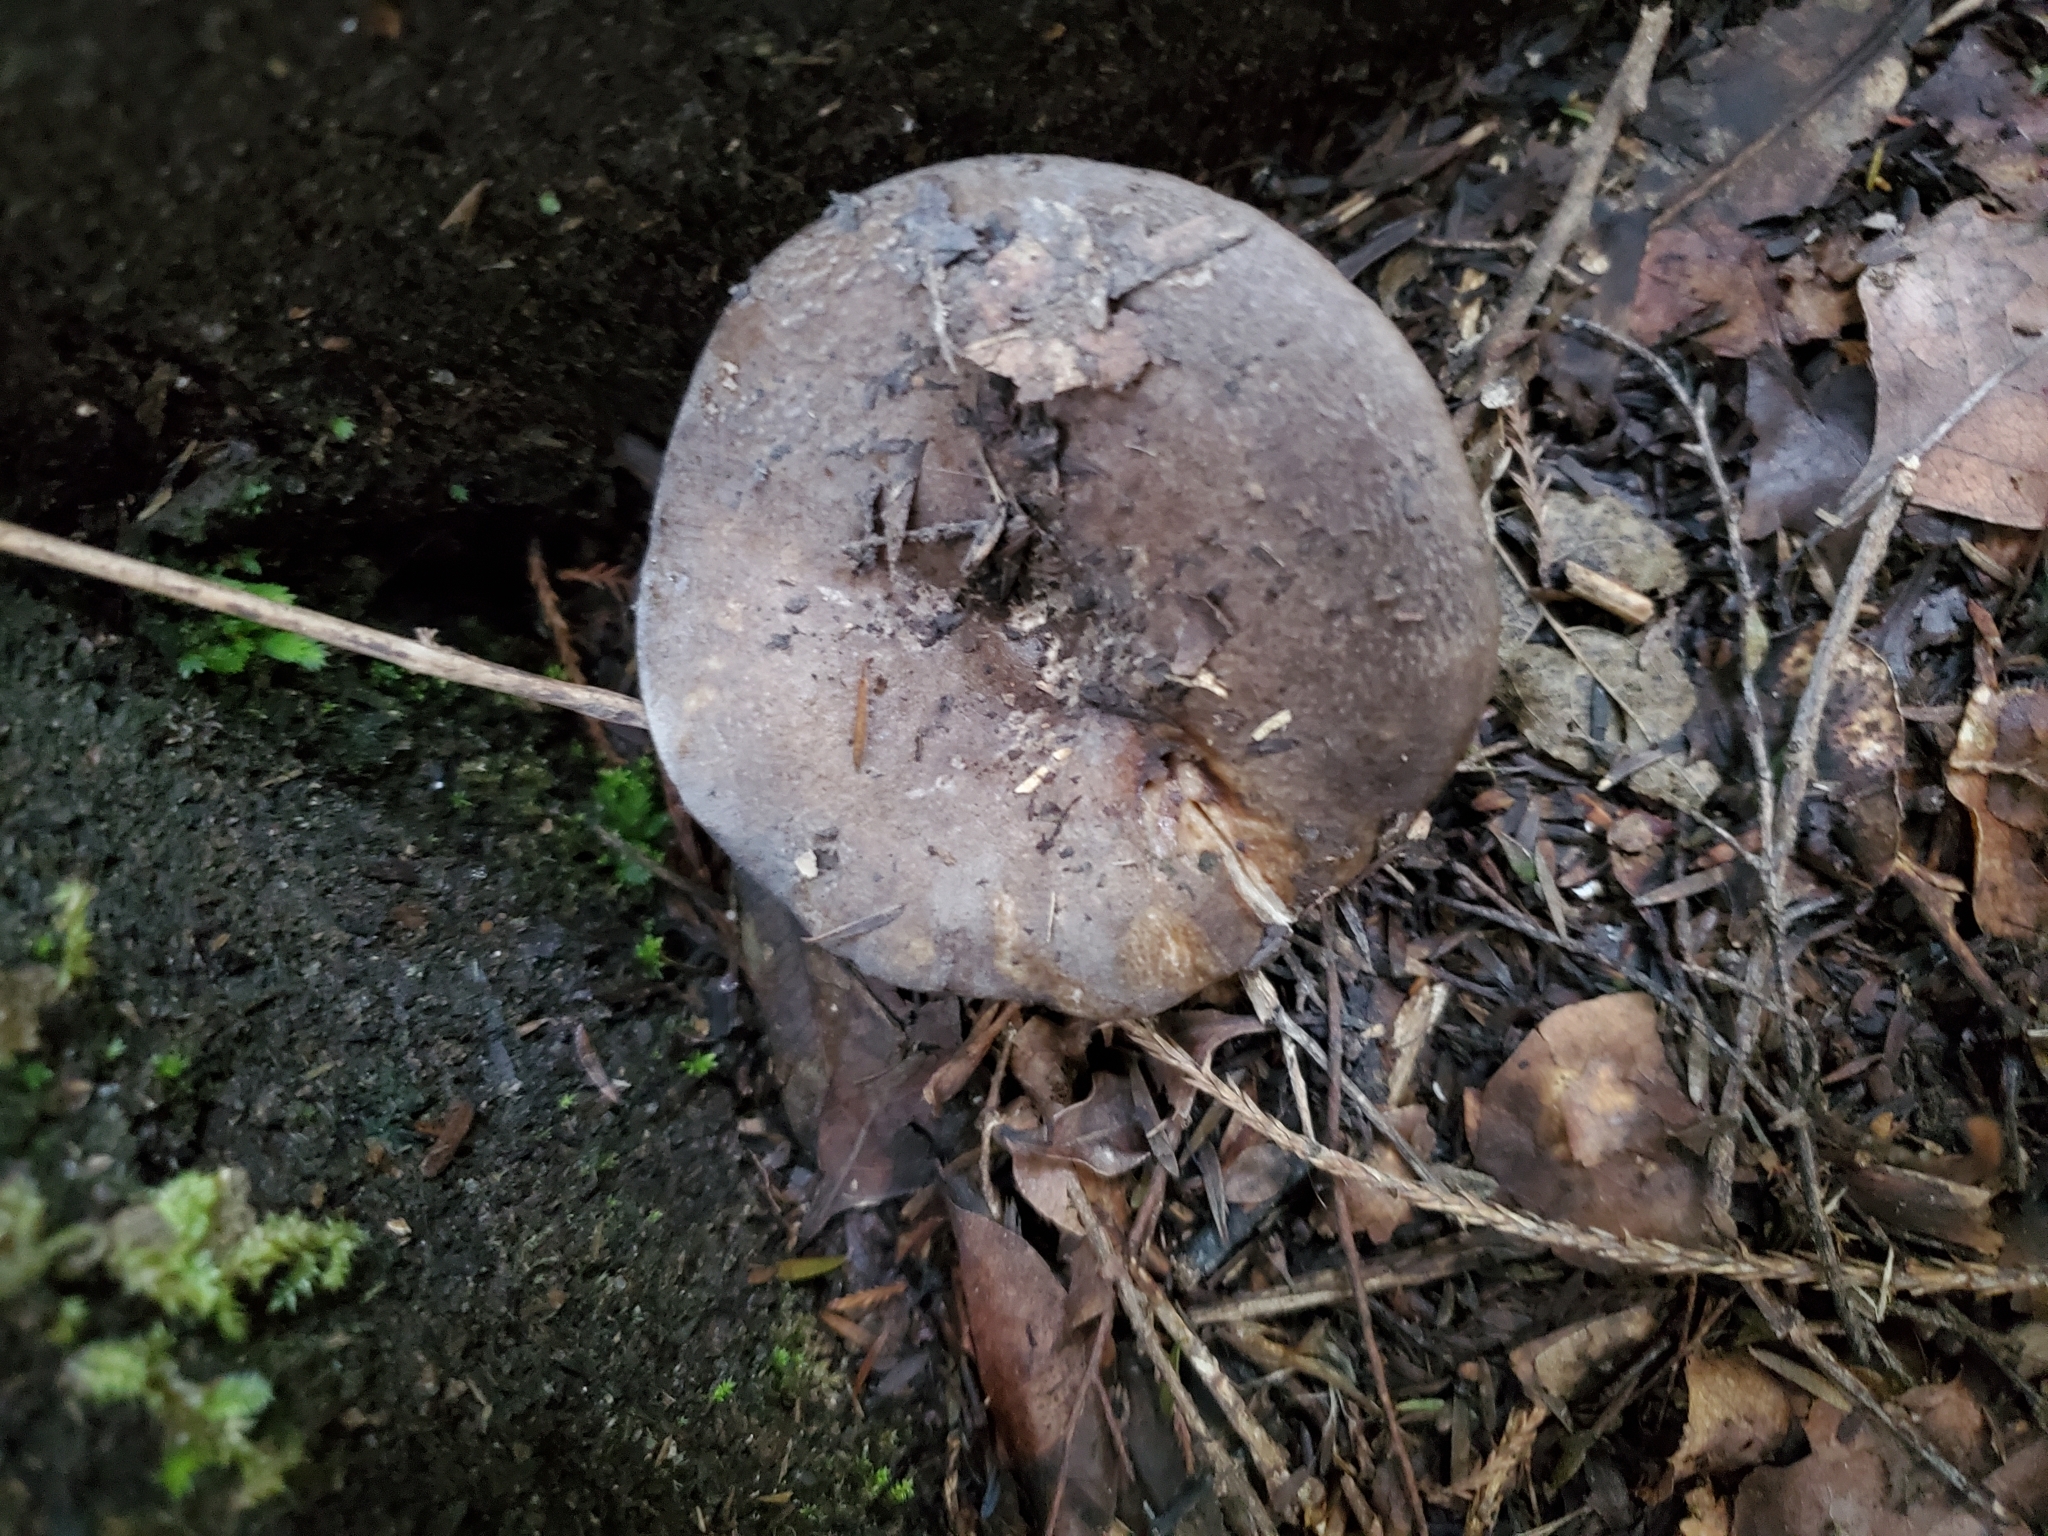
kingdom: Fungi
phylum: Basidiomycota
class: Agaricomycetes
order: Russulales
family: Russulaceae
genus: Russula
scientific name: Russula griseobrunnea
